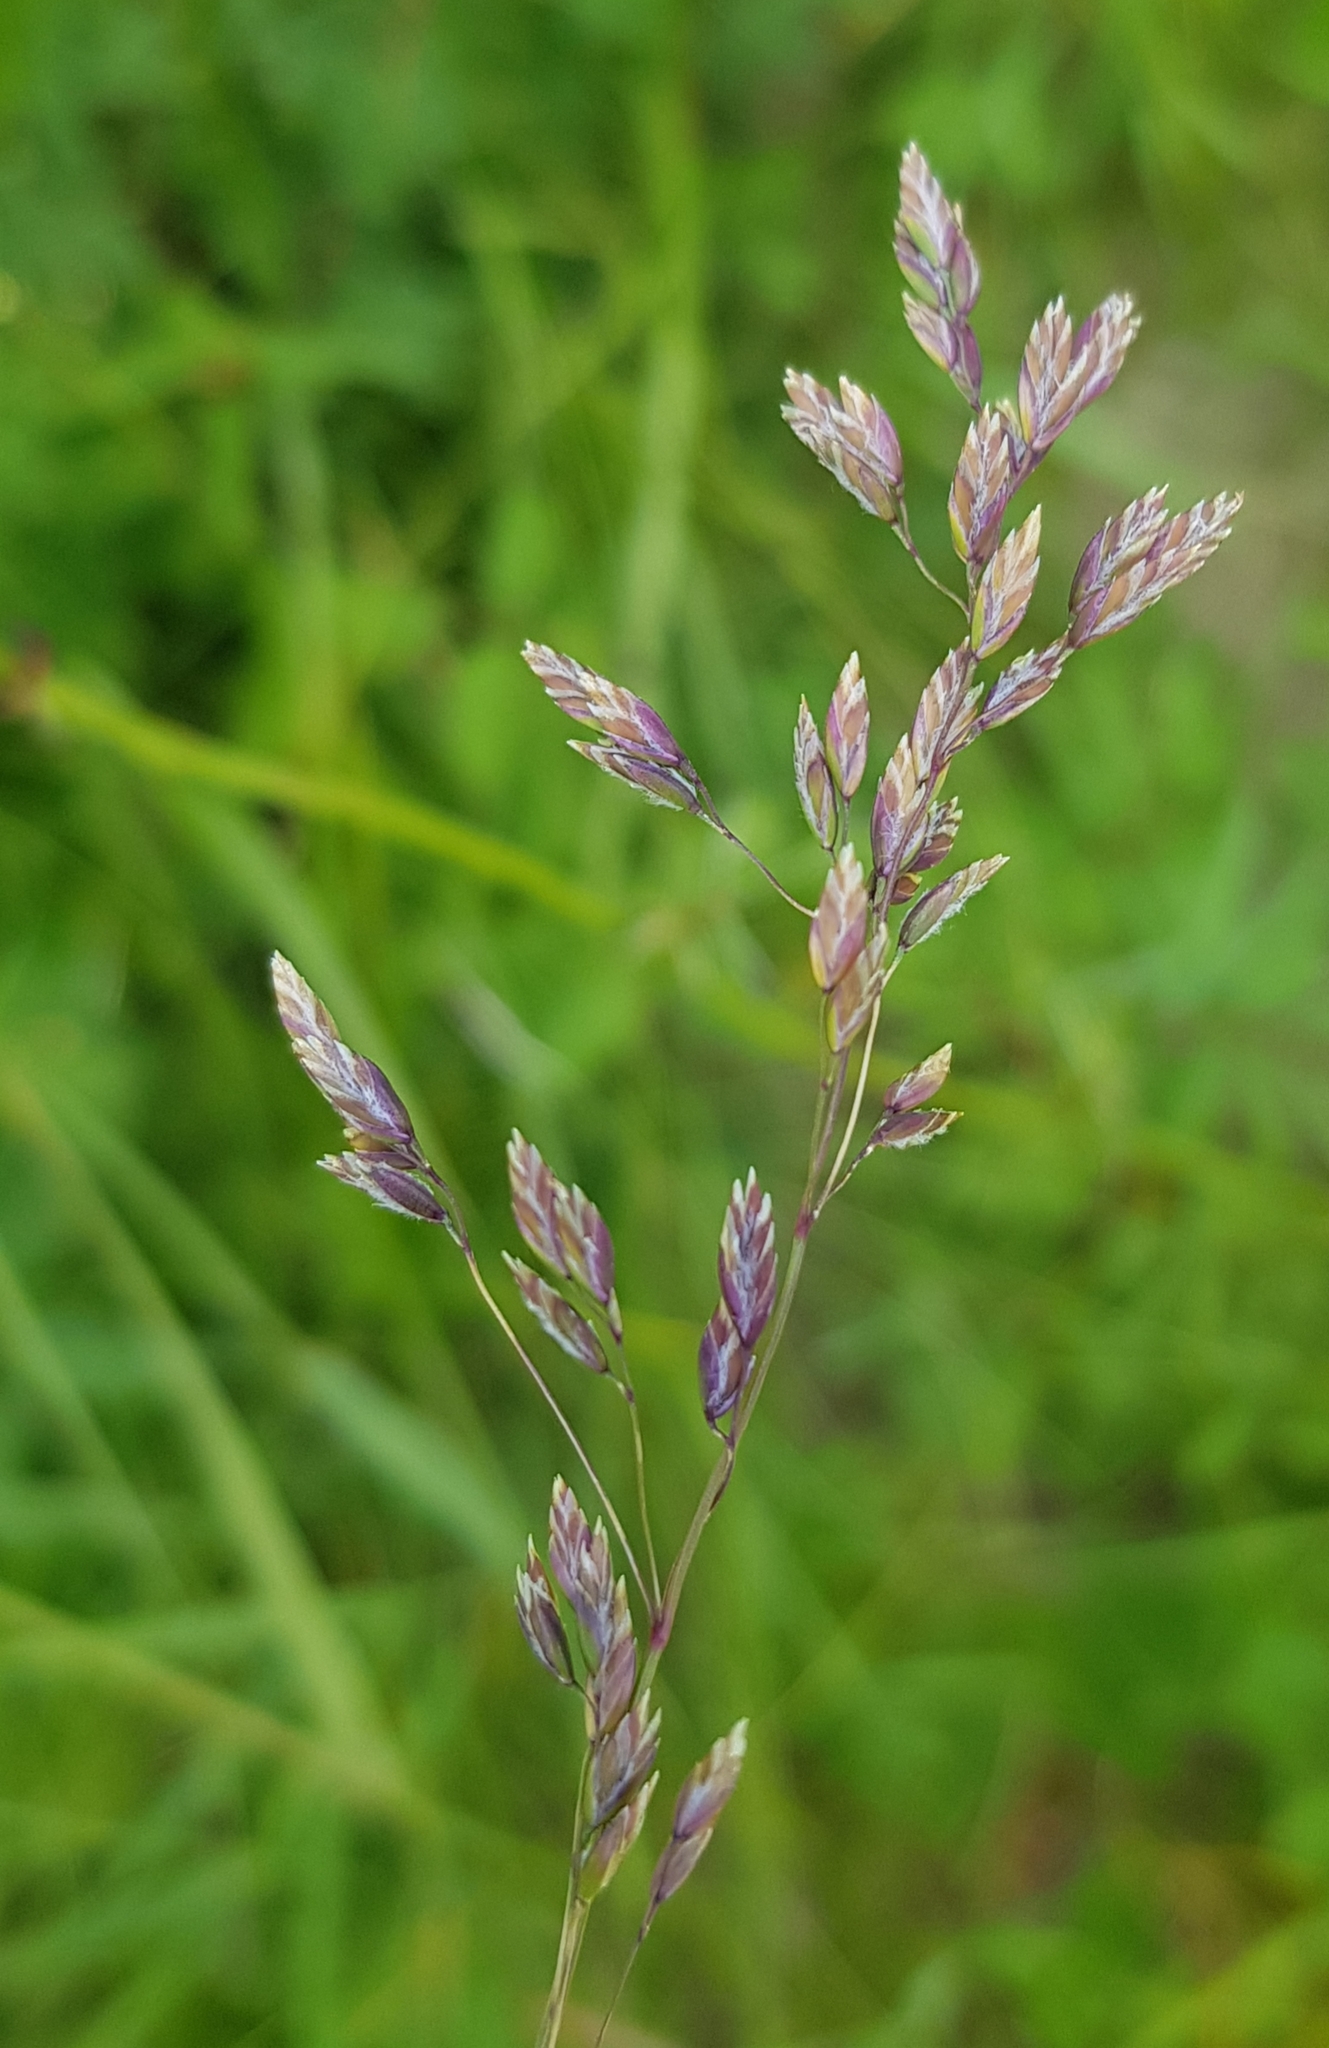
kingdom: Plantae
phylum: Tracheophyta
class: Liliopsida
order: Poales
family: Poaceae
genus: Poa
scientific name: Poa pratensis
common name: Kentucky bluegrass
